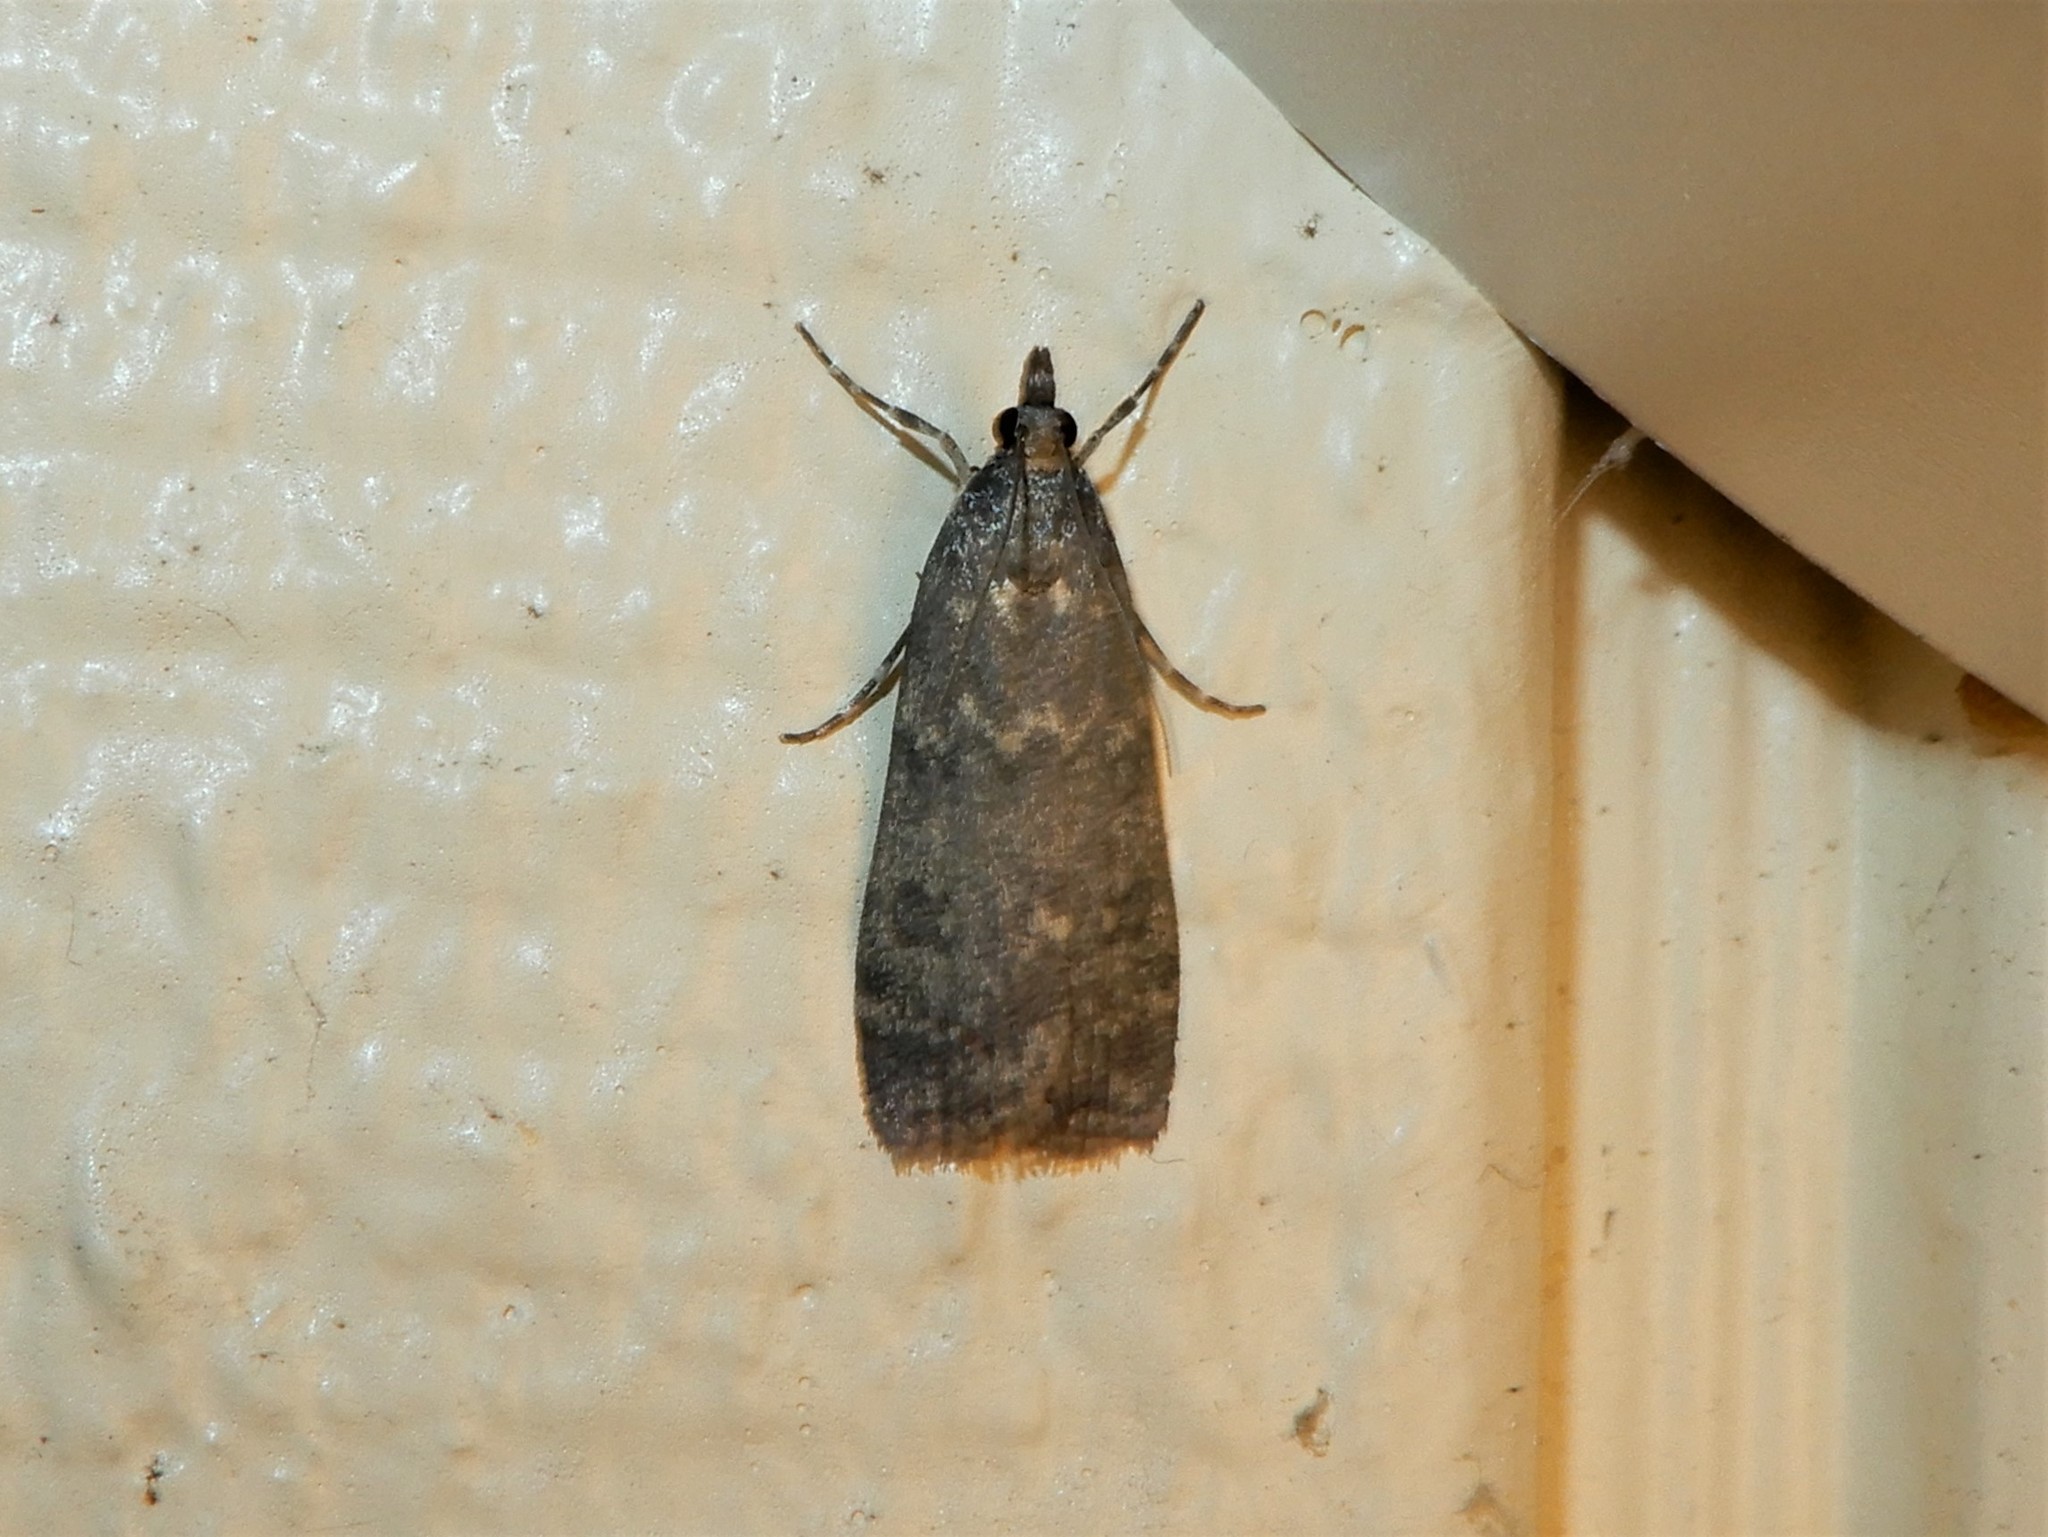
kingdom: Animalia
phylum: Arthropoda
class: Insecta
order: Lepidoptera
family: Crambidae
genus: Eudonia
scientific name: Eudonia cataxesta
